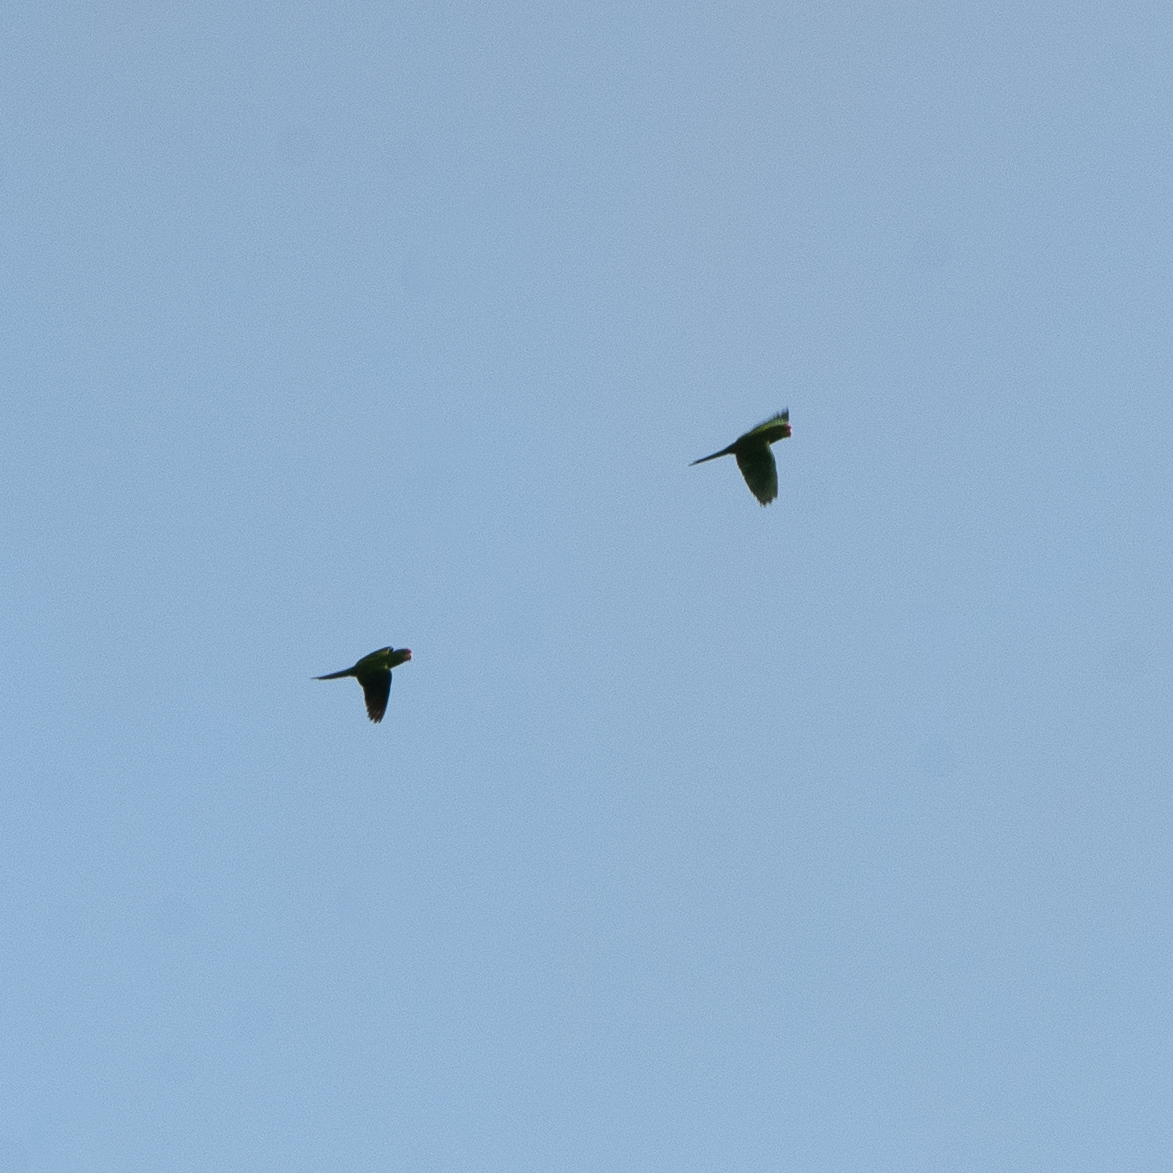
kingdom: Animalia
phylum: Chordata
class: Aves
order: Psittaciformes
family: Psittacidae
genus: Aratinga
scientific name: Aratinga wagleri
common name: Scarlet-fronted parakeet
